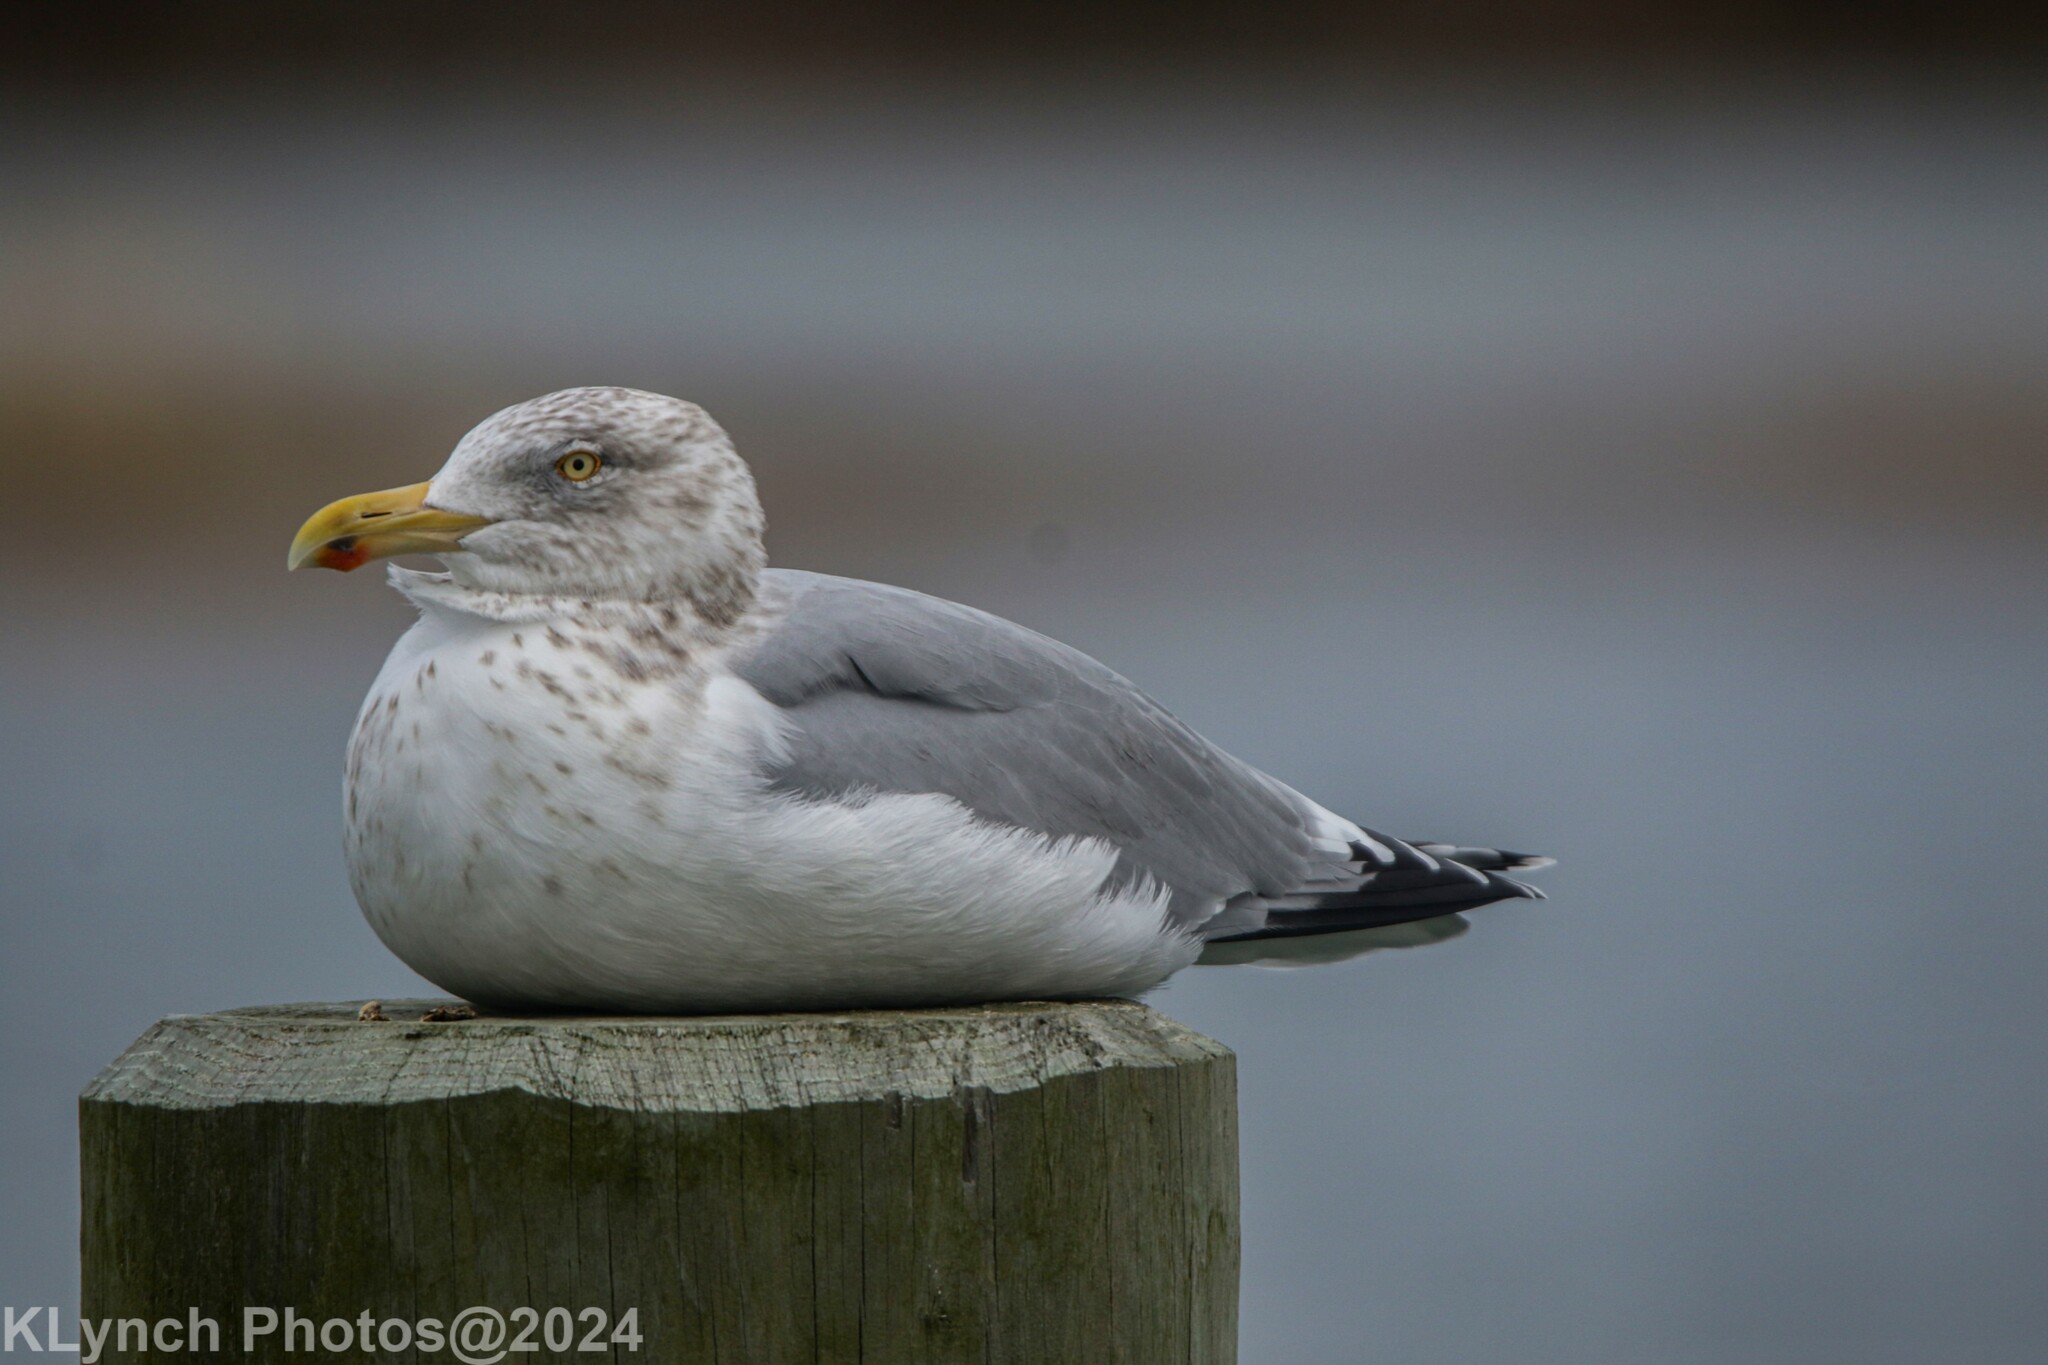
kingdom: Animalia
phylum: Chordata
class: Aves
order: Charadriiformes
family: Laridae
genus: Larus
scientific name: Larus argentatus
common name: Herring gull
